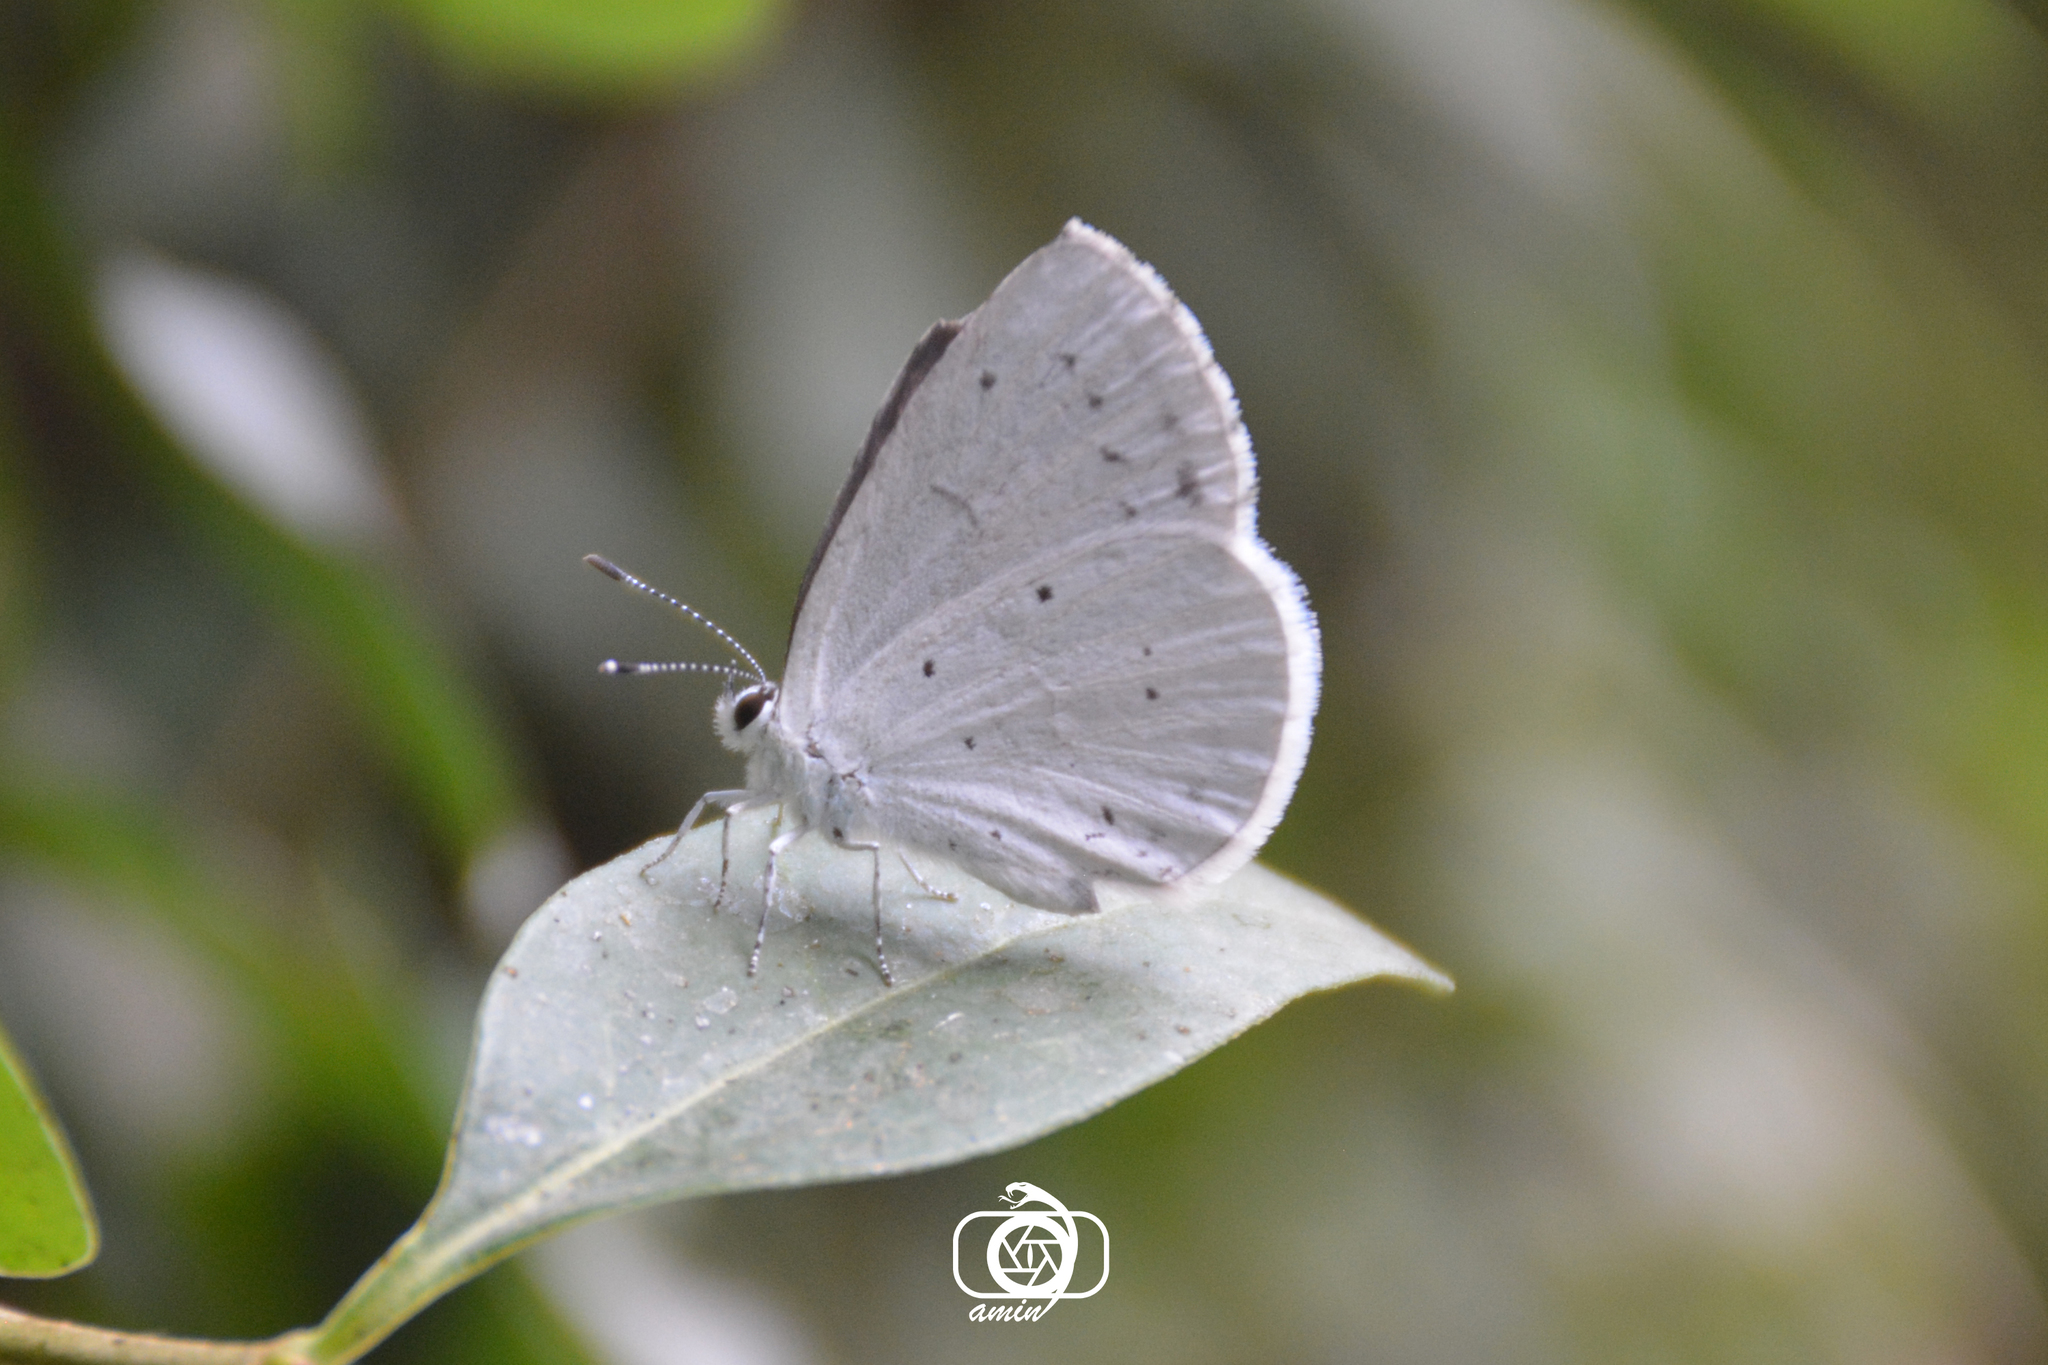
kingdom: Animalia
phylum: Arthropoda
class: Insecta
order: Lepidoptera
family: Lycaenidae
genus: Celastrina
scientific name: Celastrina argiolus
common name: Holly blue
